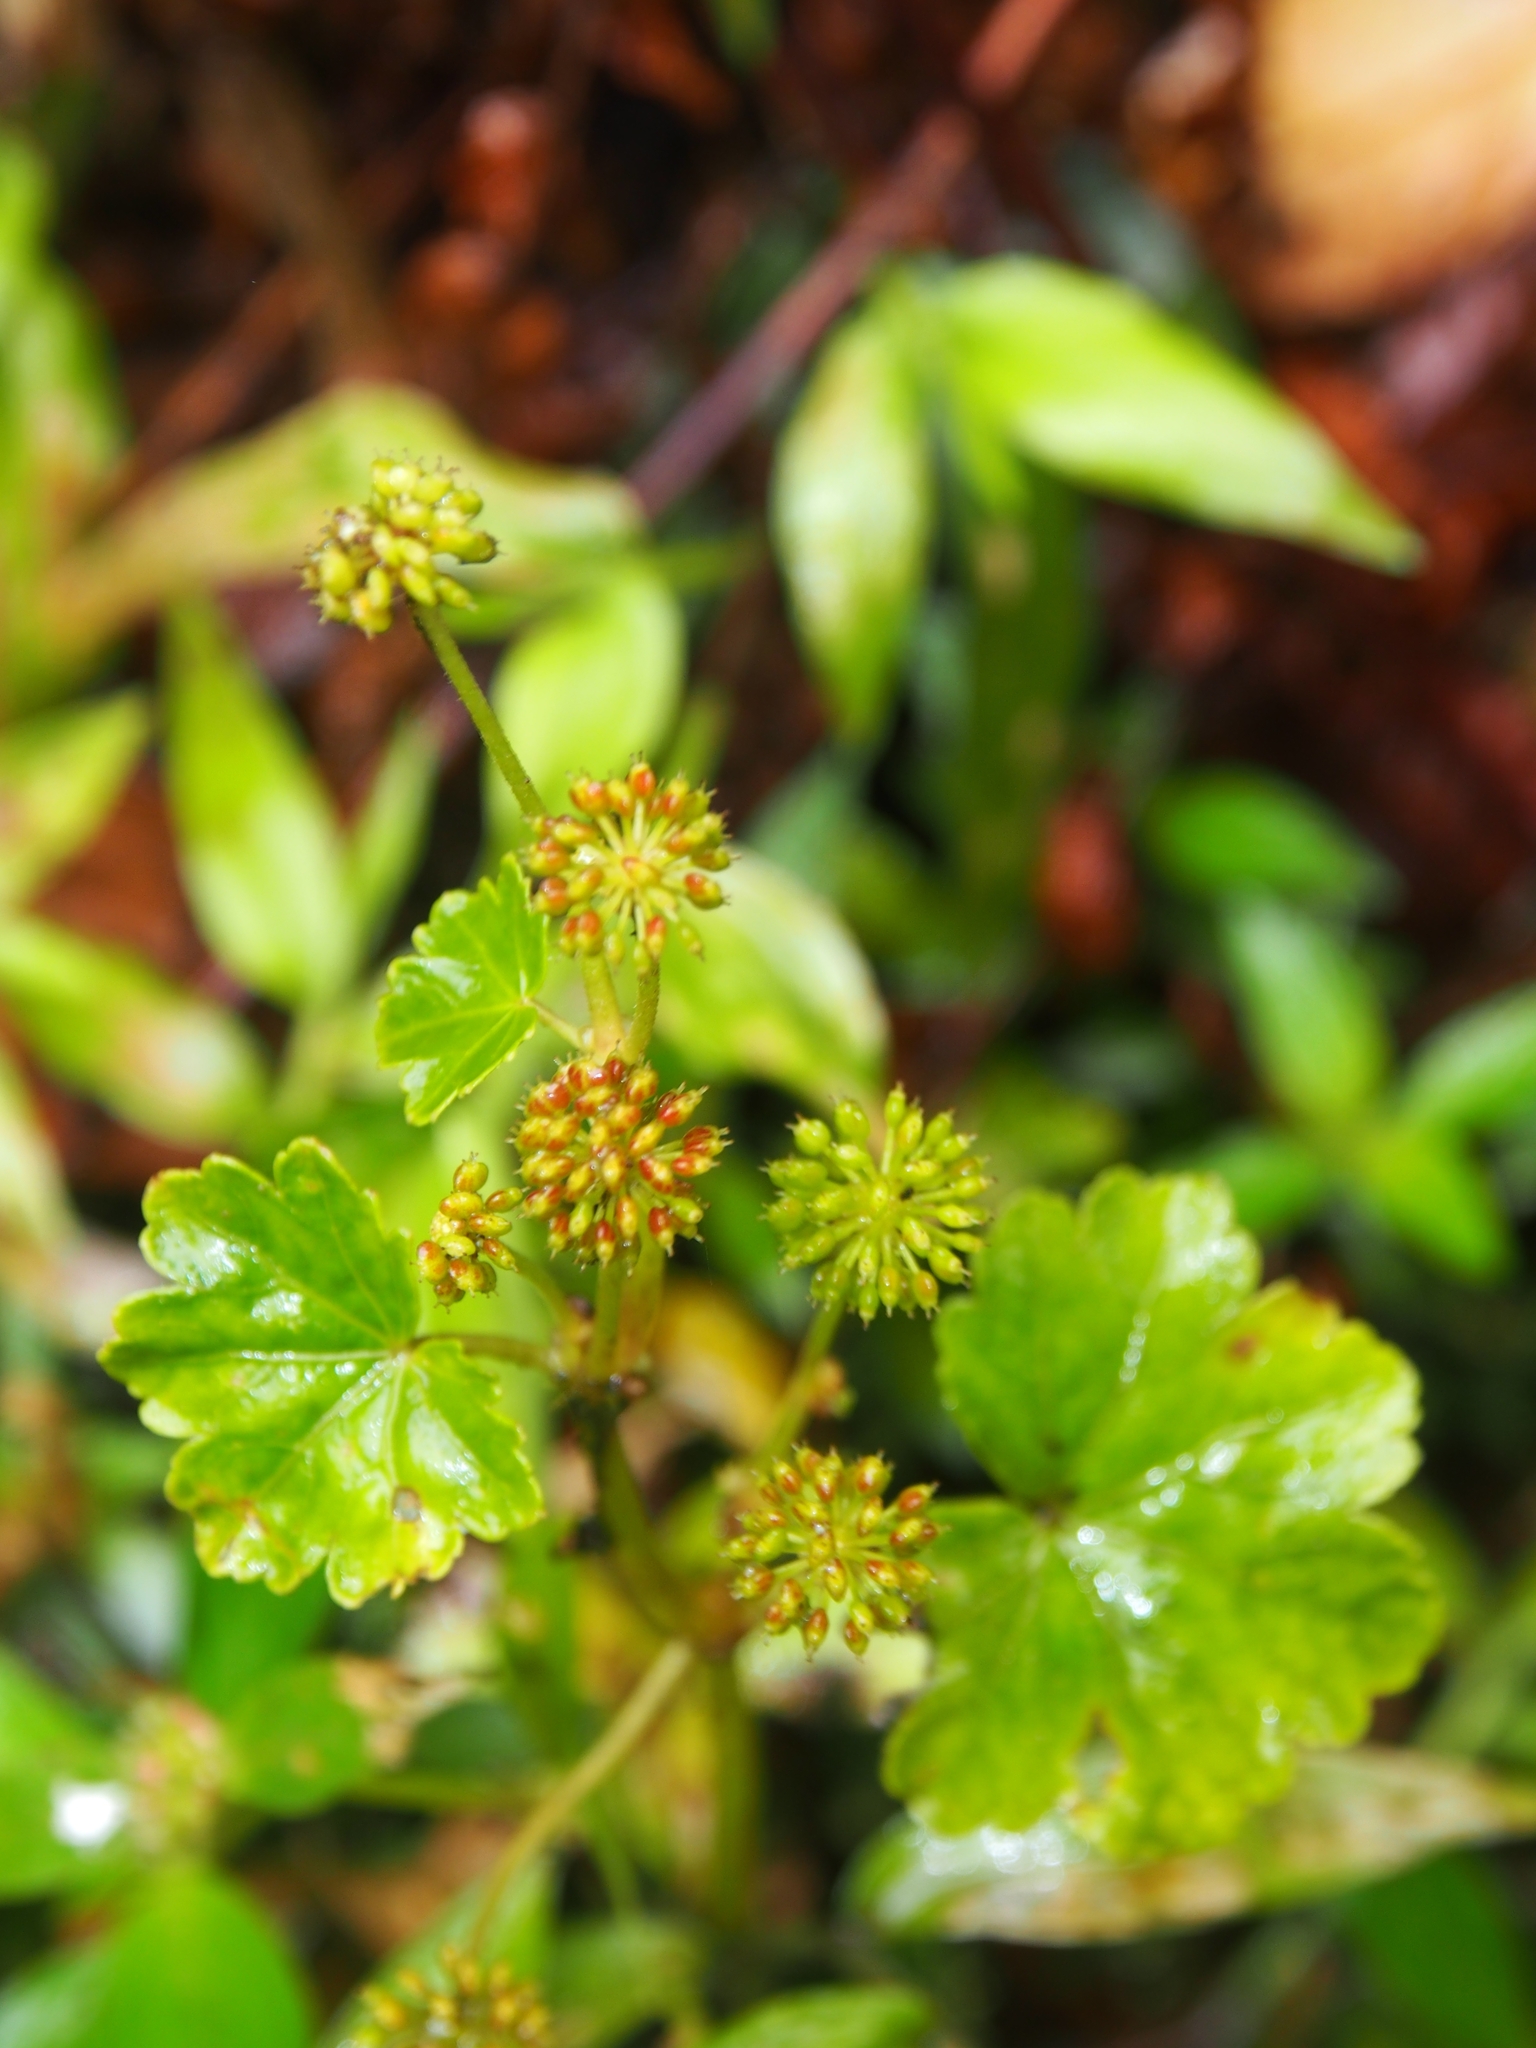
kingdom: Plantae
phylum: Tracheophyta
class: Magnoliopsida
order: Apiales
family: Araliaceae
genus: Hydrocotyle
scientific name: Hydrocotyle mexicana
